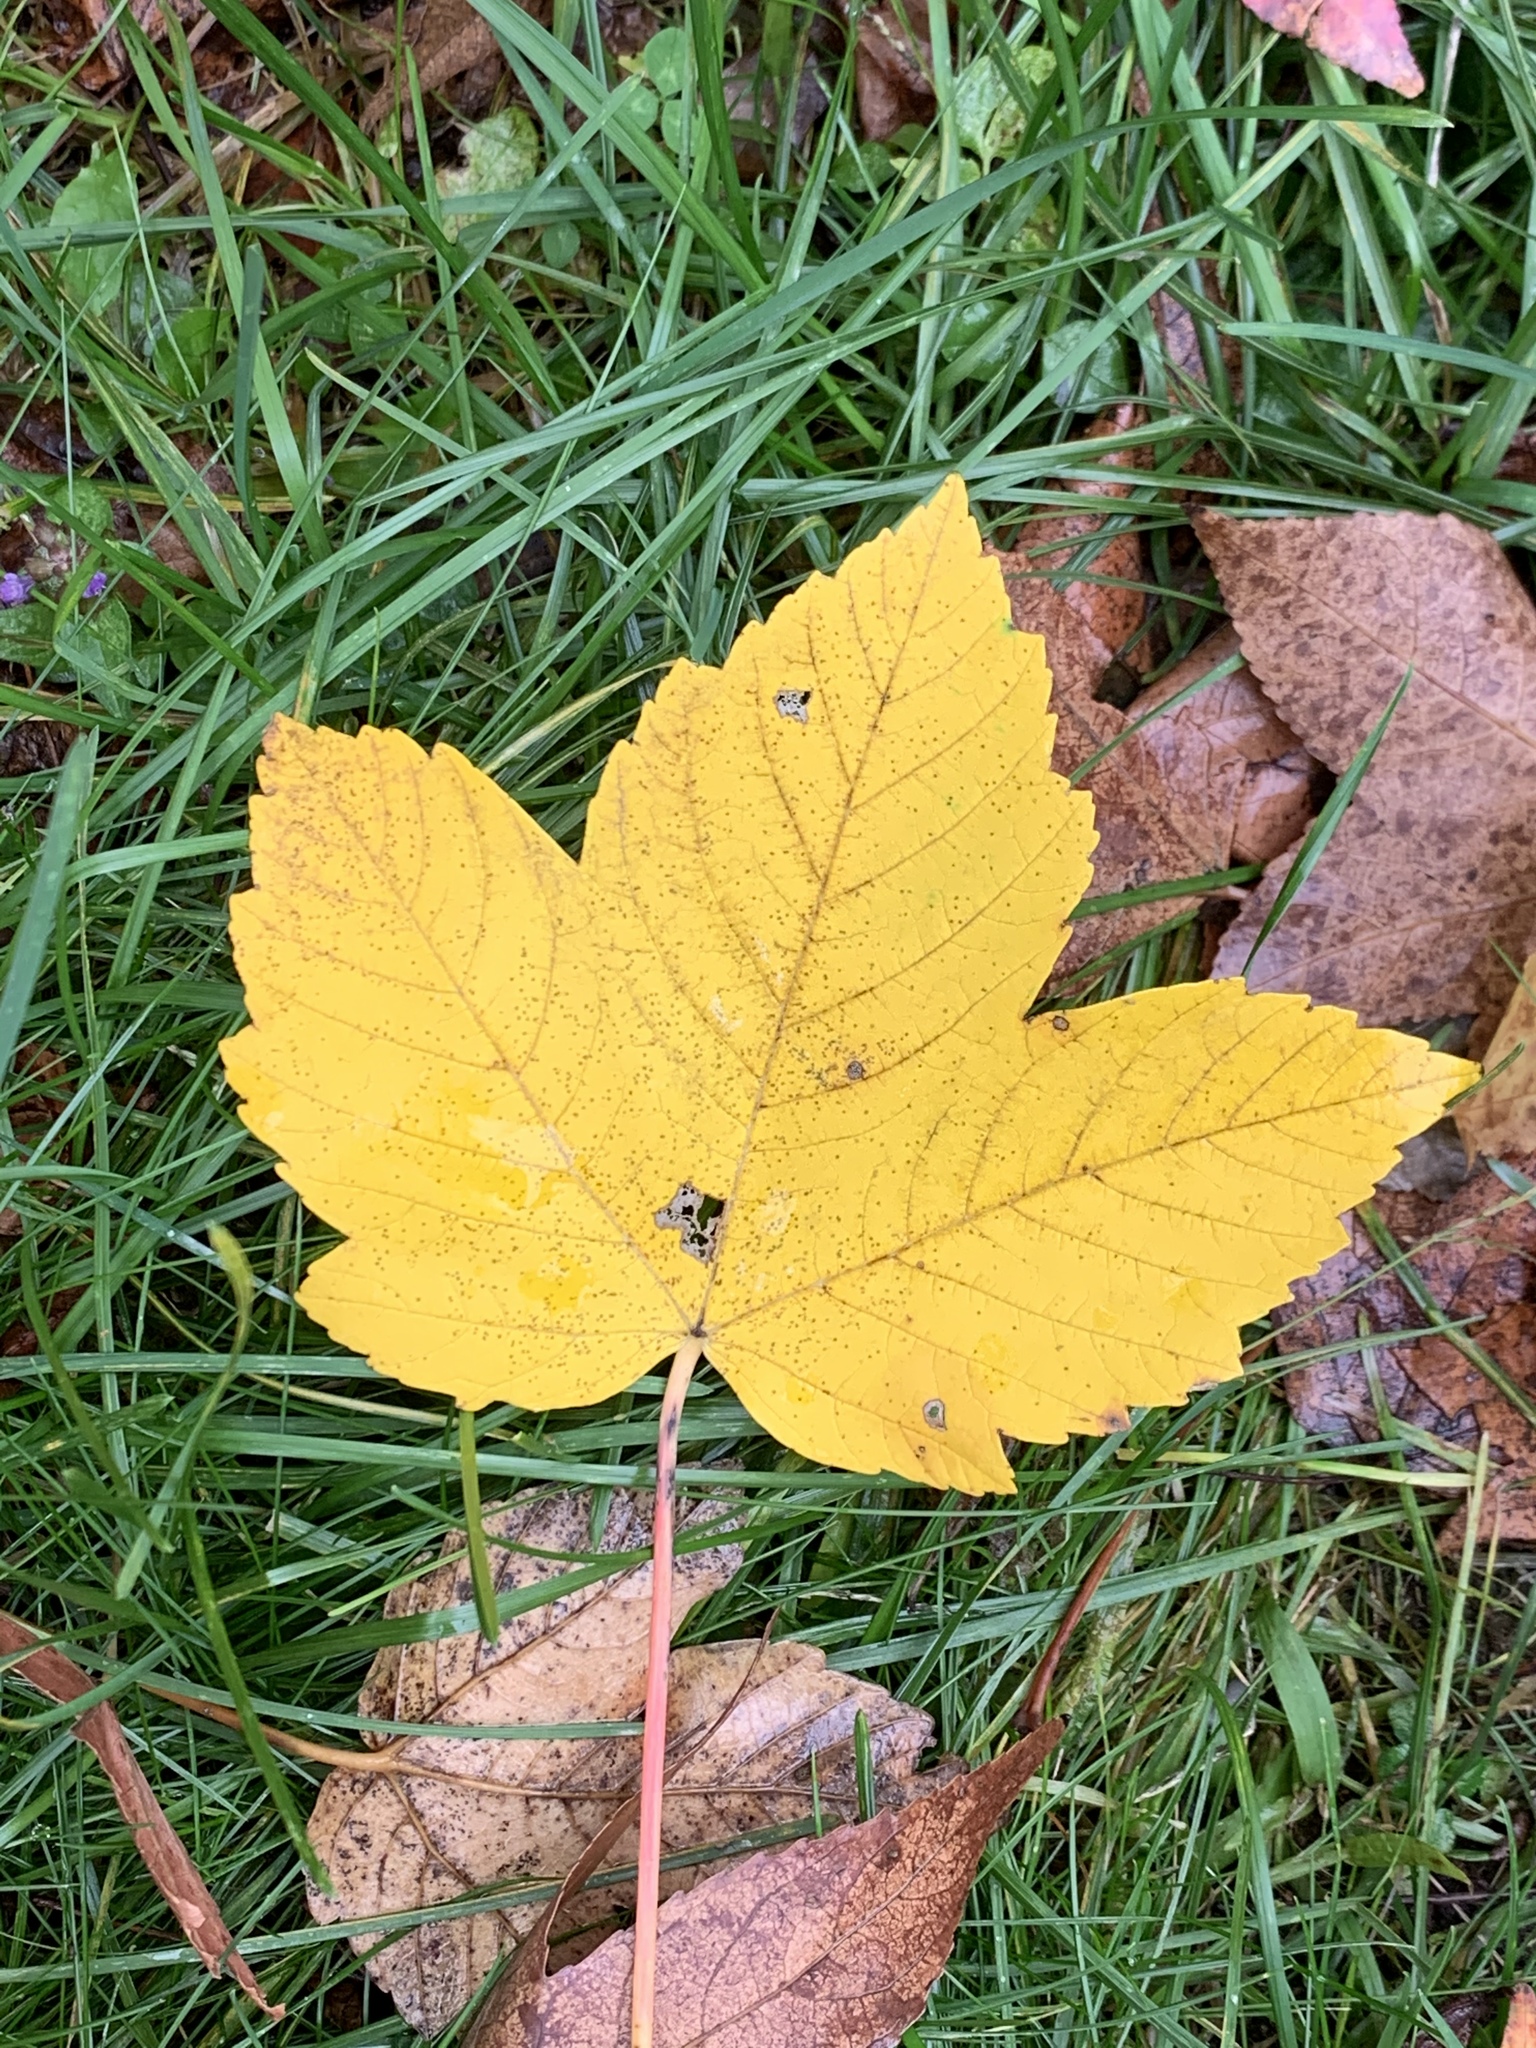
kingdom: Plantae
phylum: Tracheophyta
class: Magnoliopsida
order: Sapindales
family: Sapindaceae
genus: Acer
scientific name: Acer pseudoplatanus
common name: Sycamore
